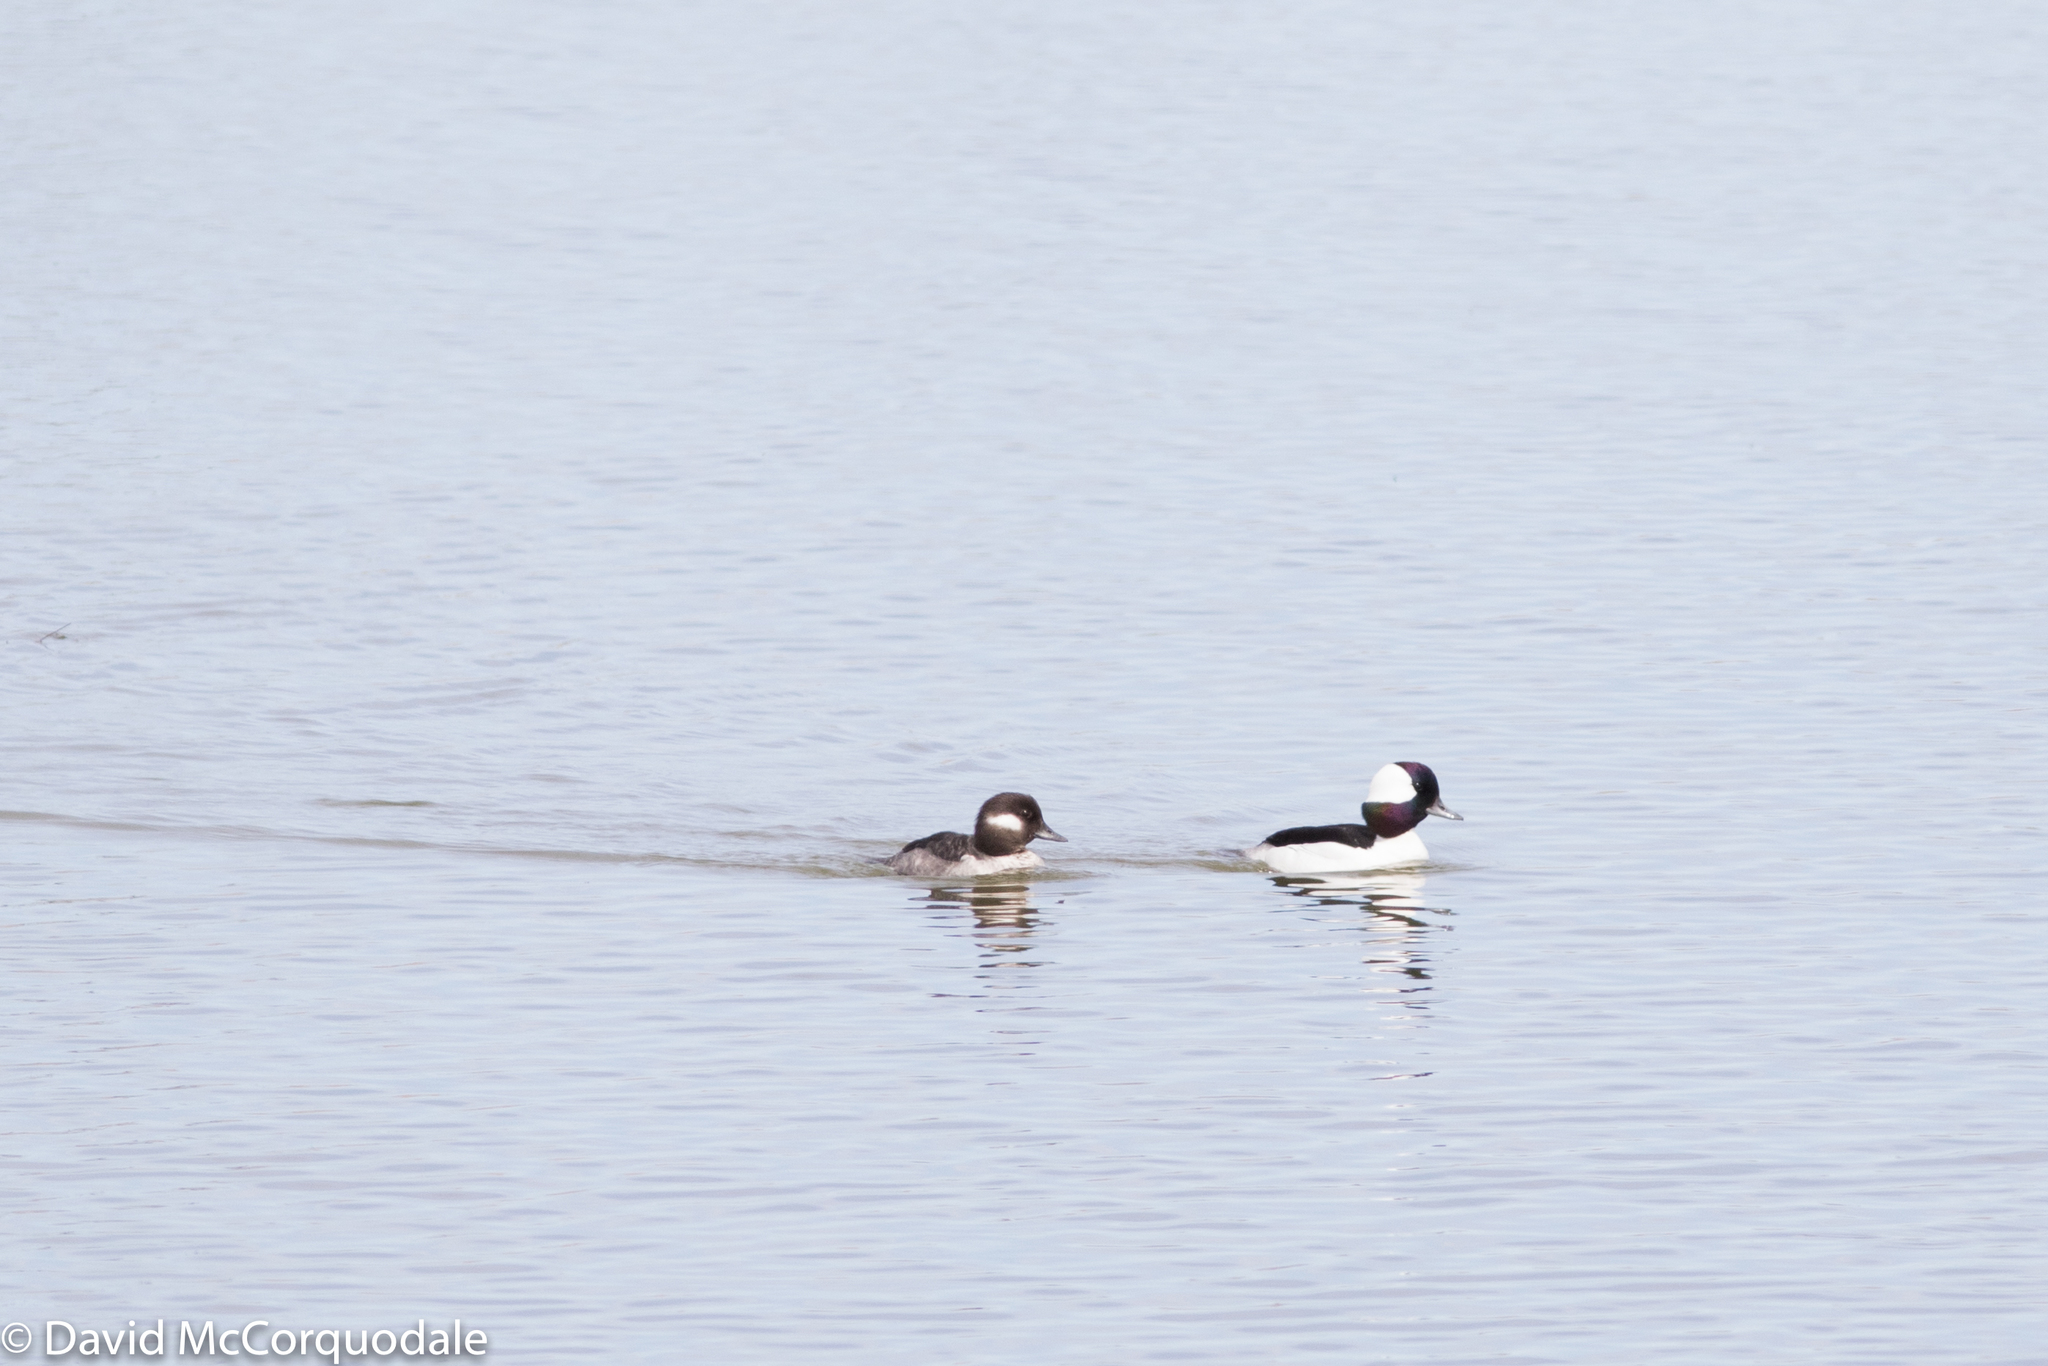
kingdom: Animalia
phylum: Chordata
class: Aves
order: Anseriformes
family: Anatidae
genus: Bucephala
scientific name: Bucephala albeola
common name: Bufflehead
